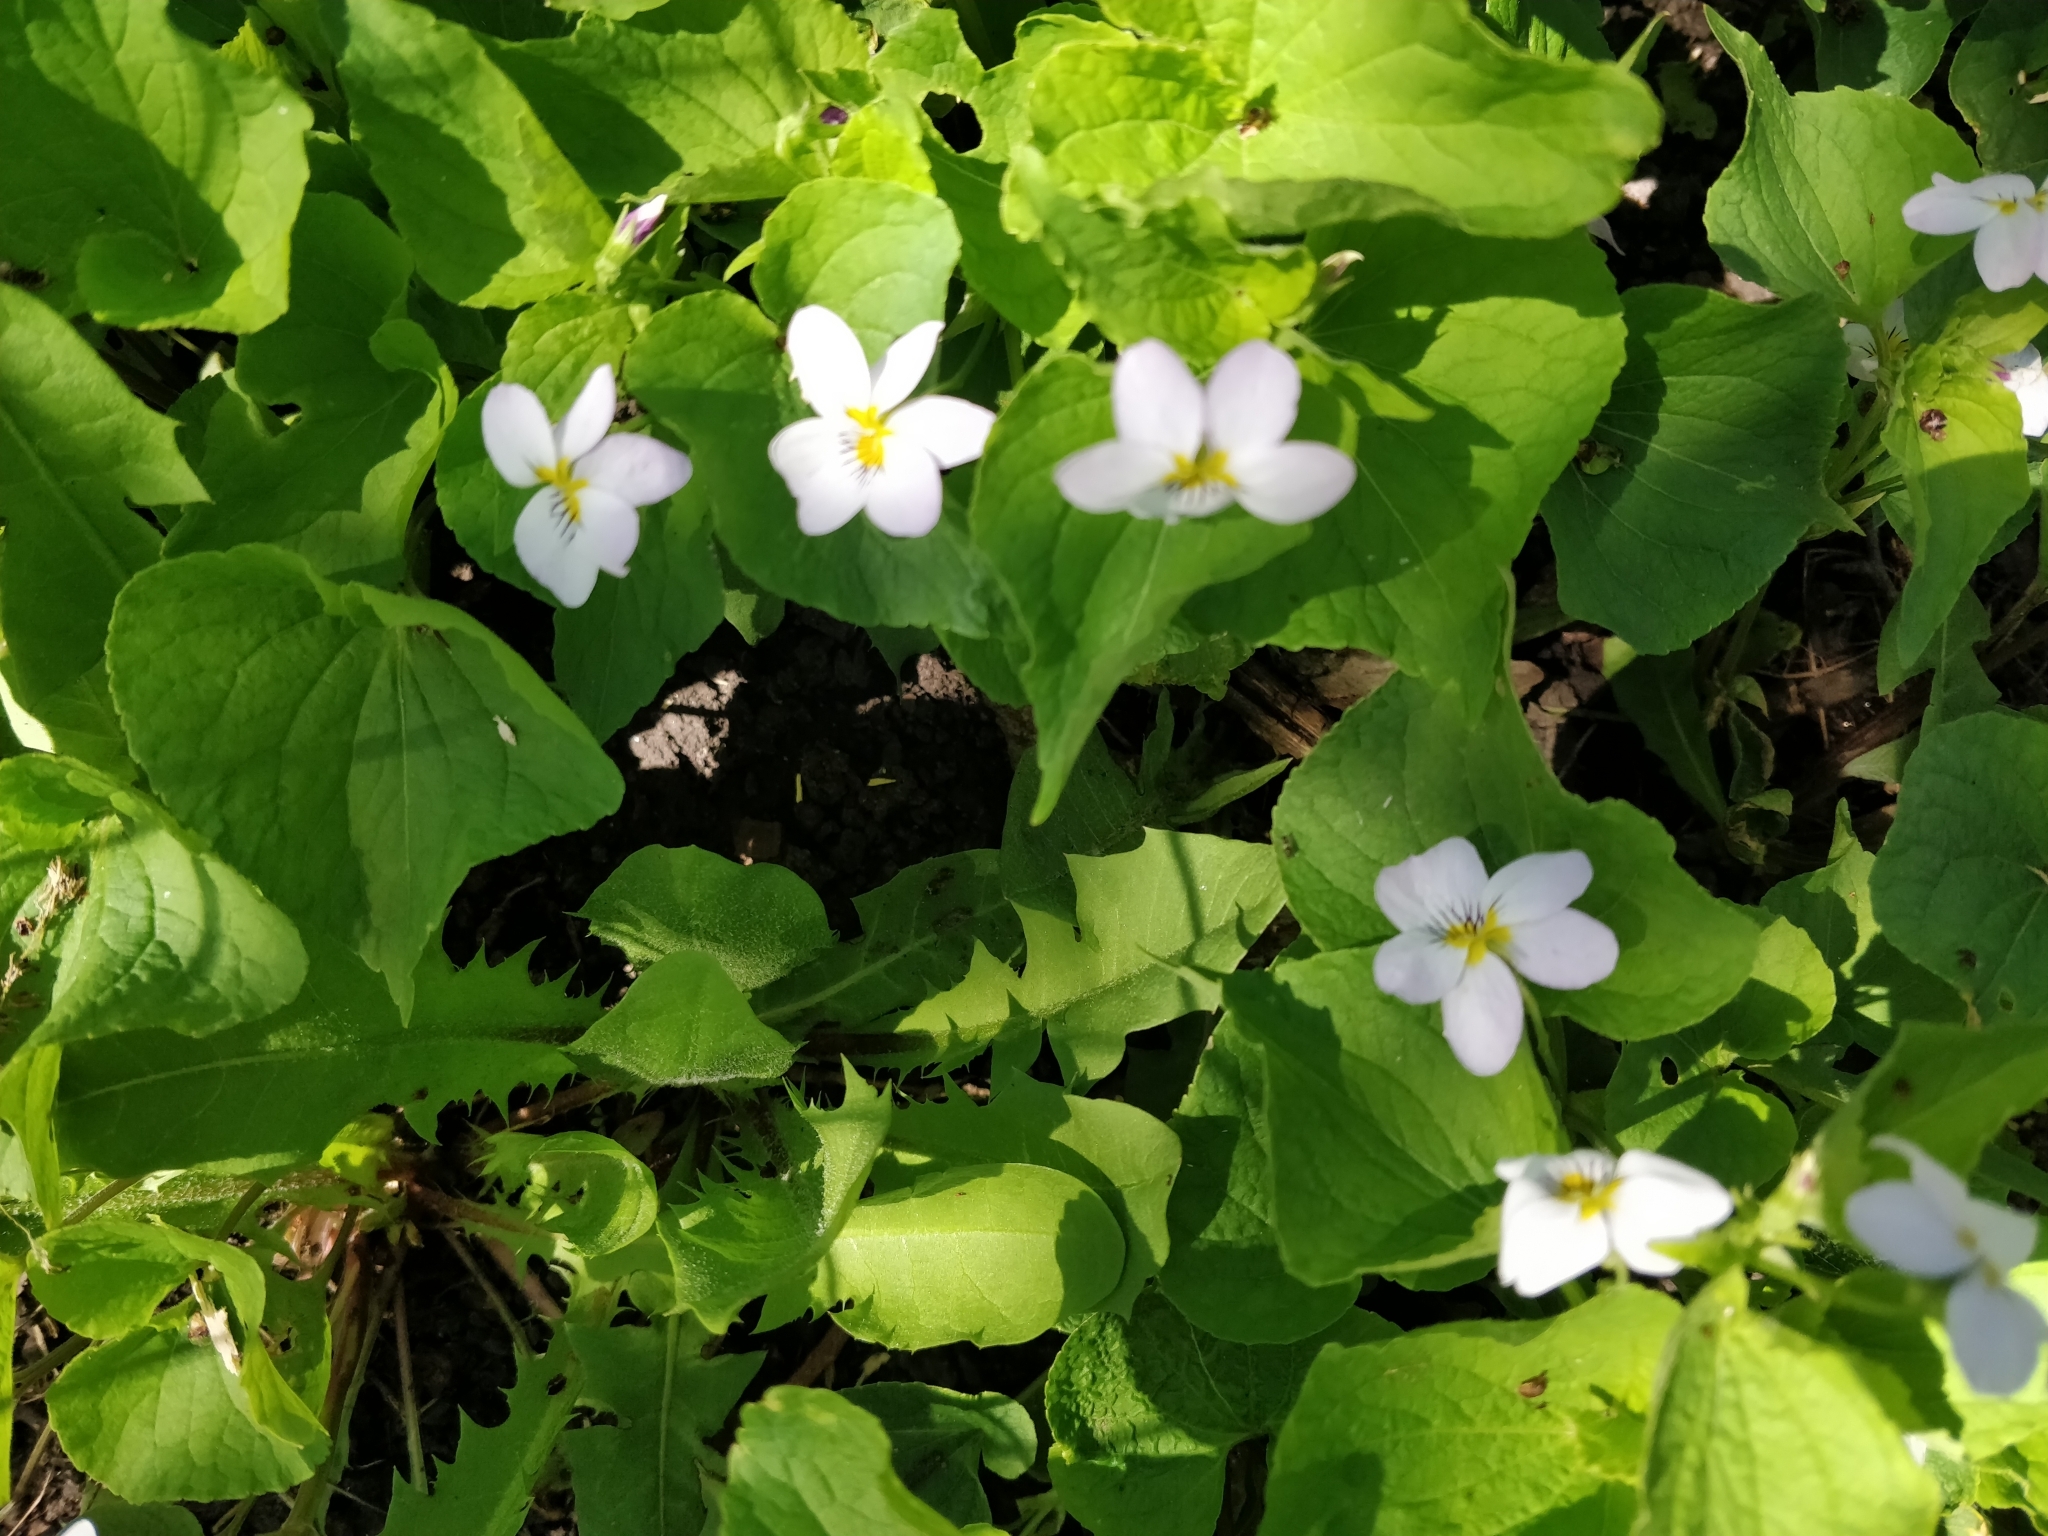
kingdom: Plantae
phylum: Tracheophyta
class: Magnoliopsida
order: Malpighiales
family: Violaceae
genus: Viola
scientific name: Viola canadensis
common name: Canada violet
